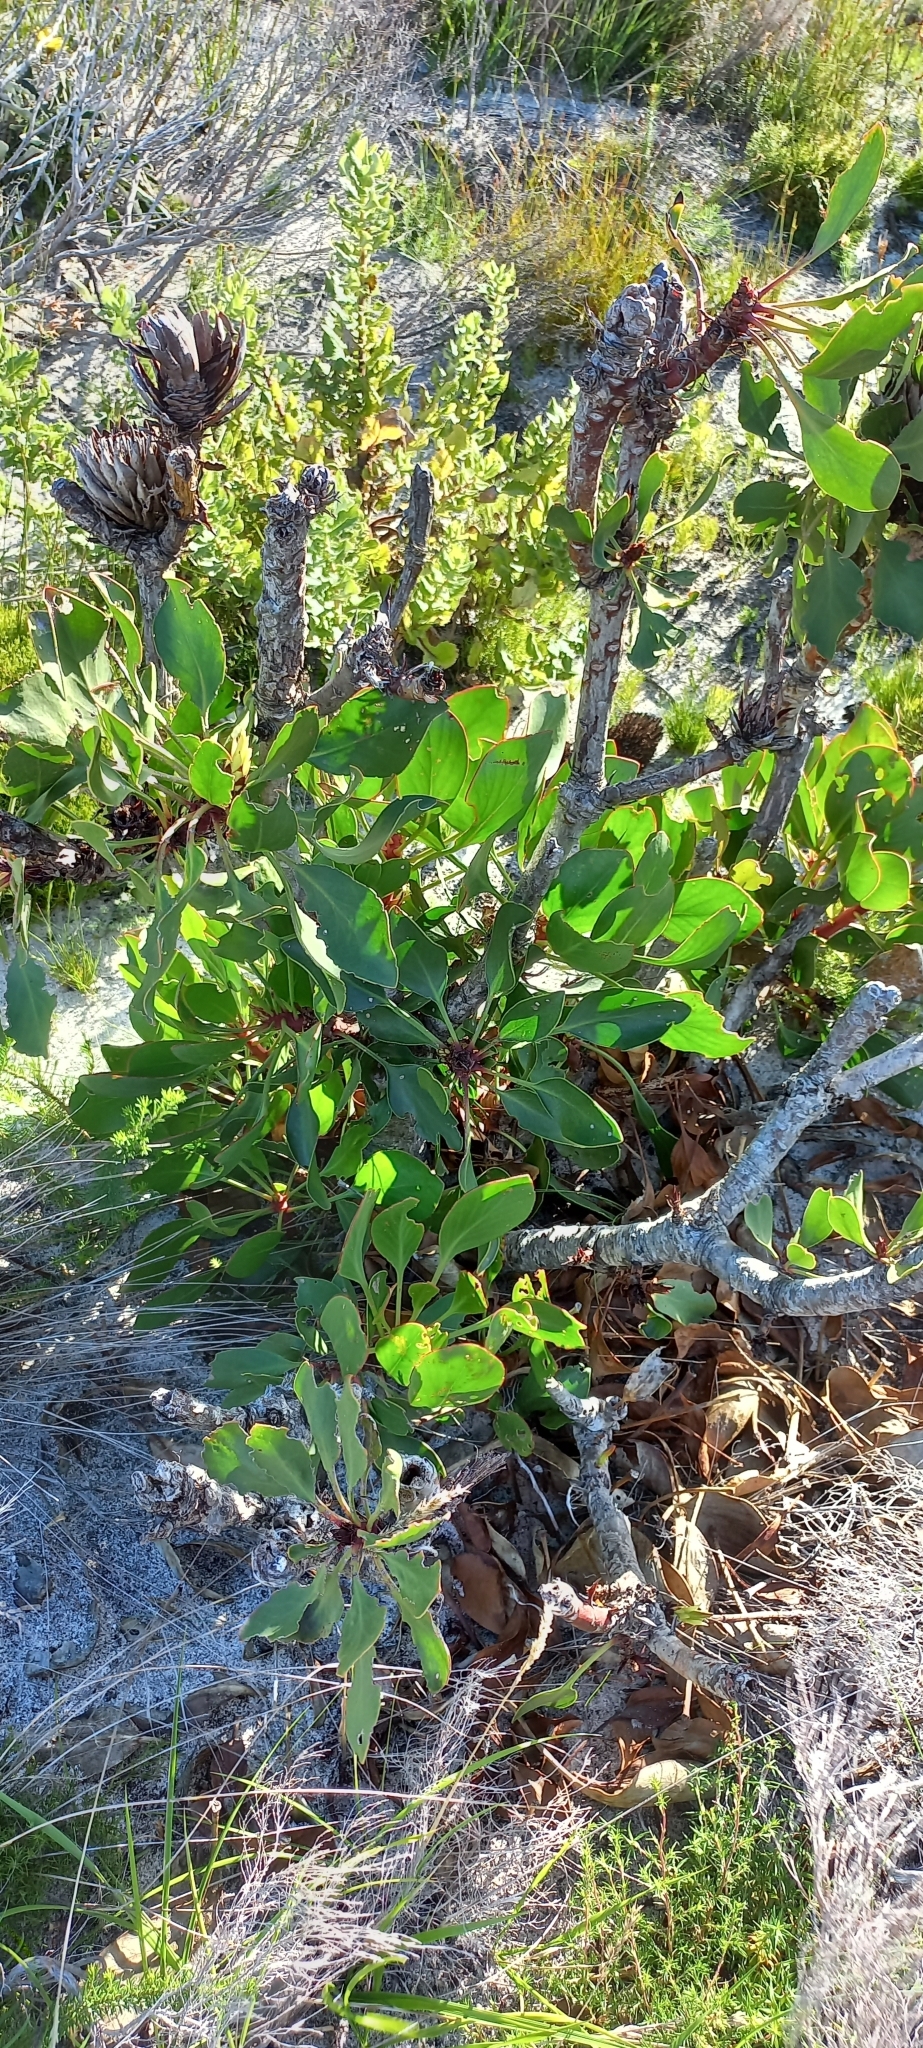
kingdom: Plantae
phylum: Tracheophyta
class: Magnoliopsida
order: Proteales
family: Proteaceae
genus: Protea
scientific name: Protea cynaroides
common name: King protea
